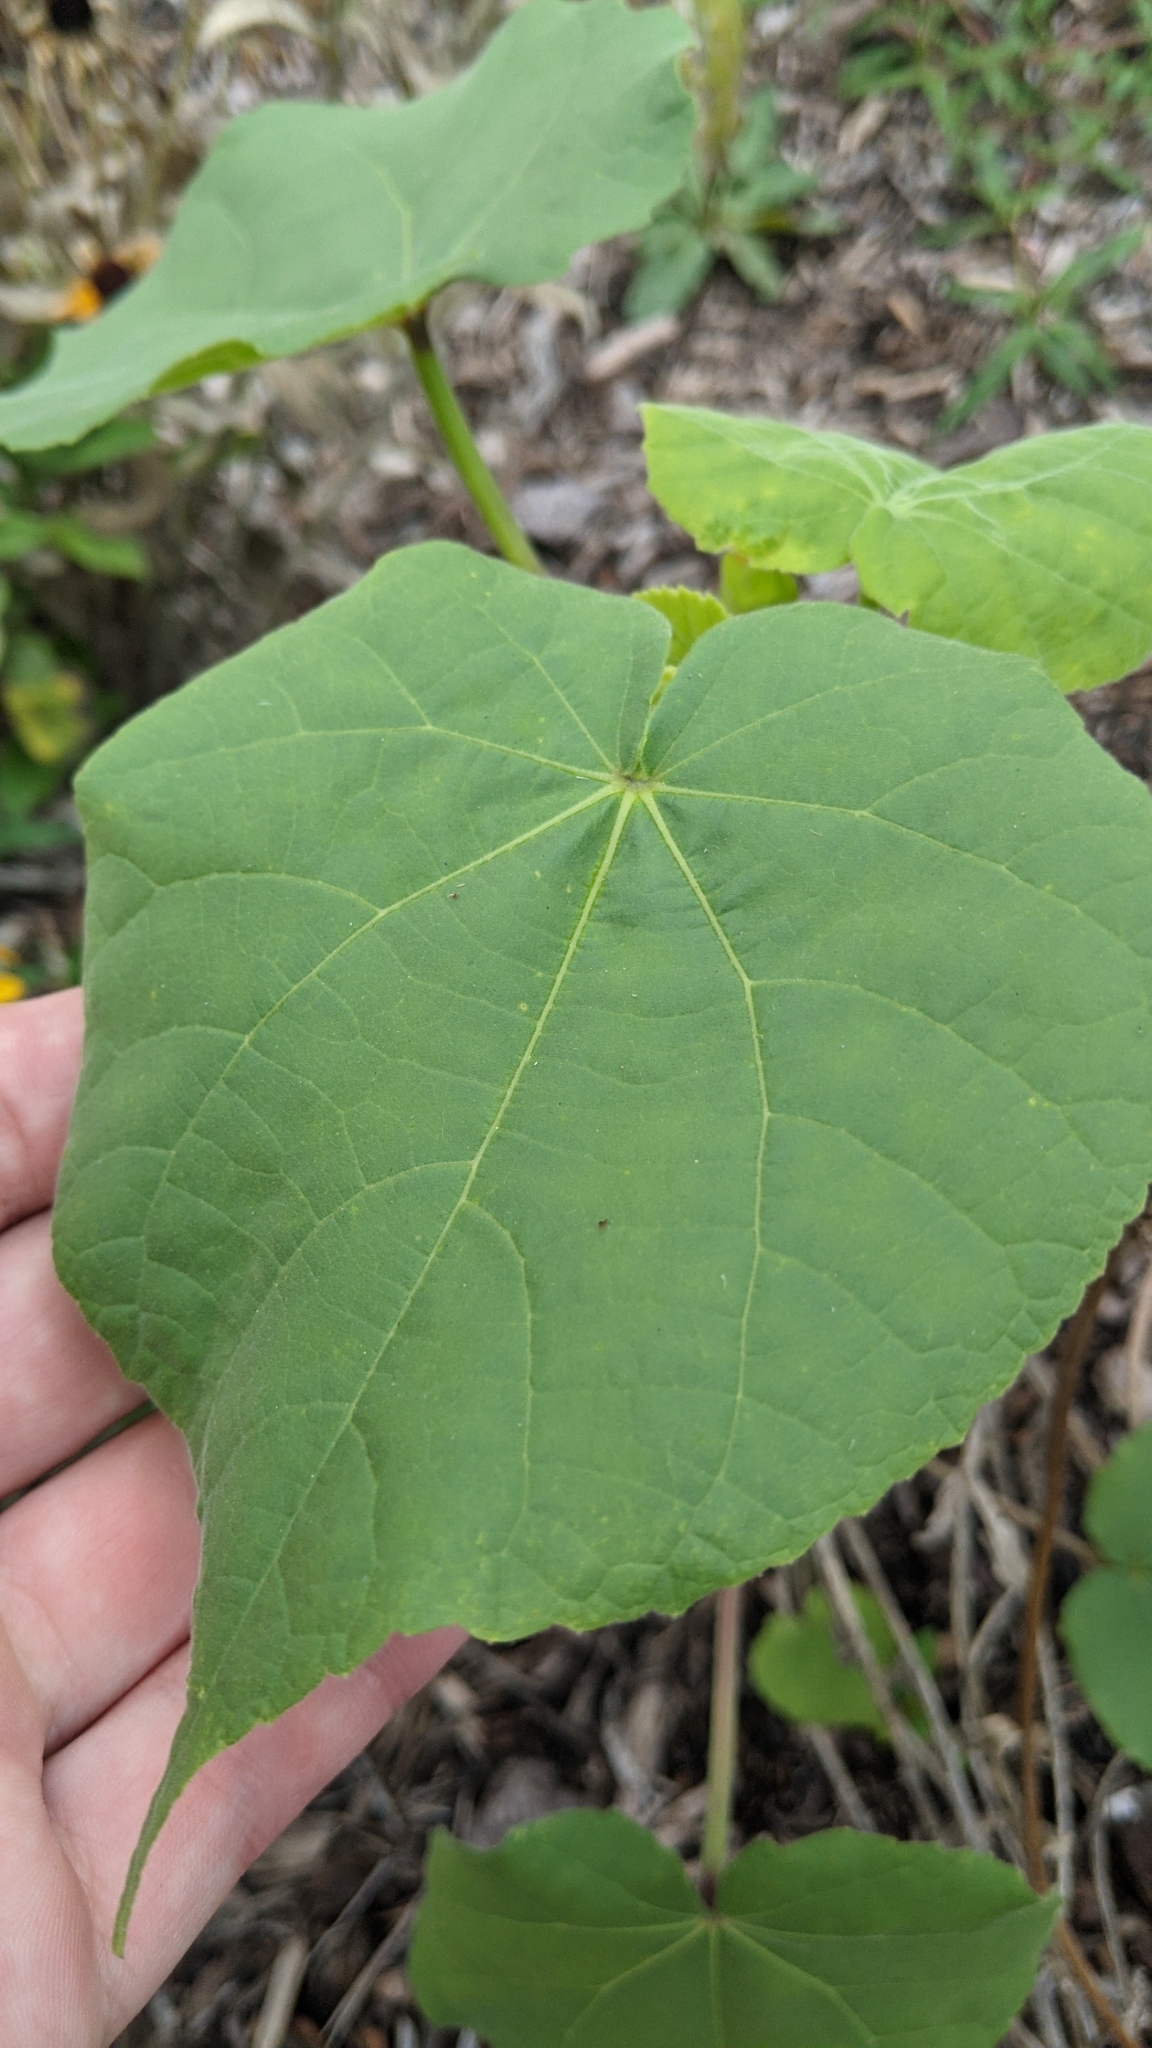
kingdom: Plantae
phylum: Tracheophyta
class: Magnoliopsida
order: Malvales
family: Malvaceae
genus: Abutilon
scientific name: Abutilon theophrasti
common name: Velvetleaf
